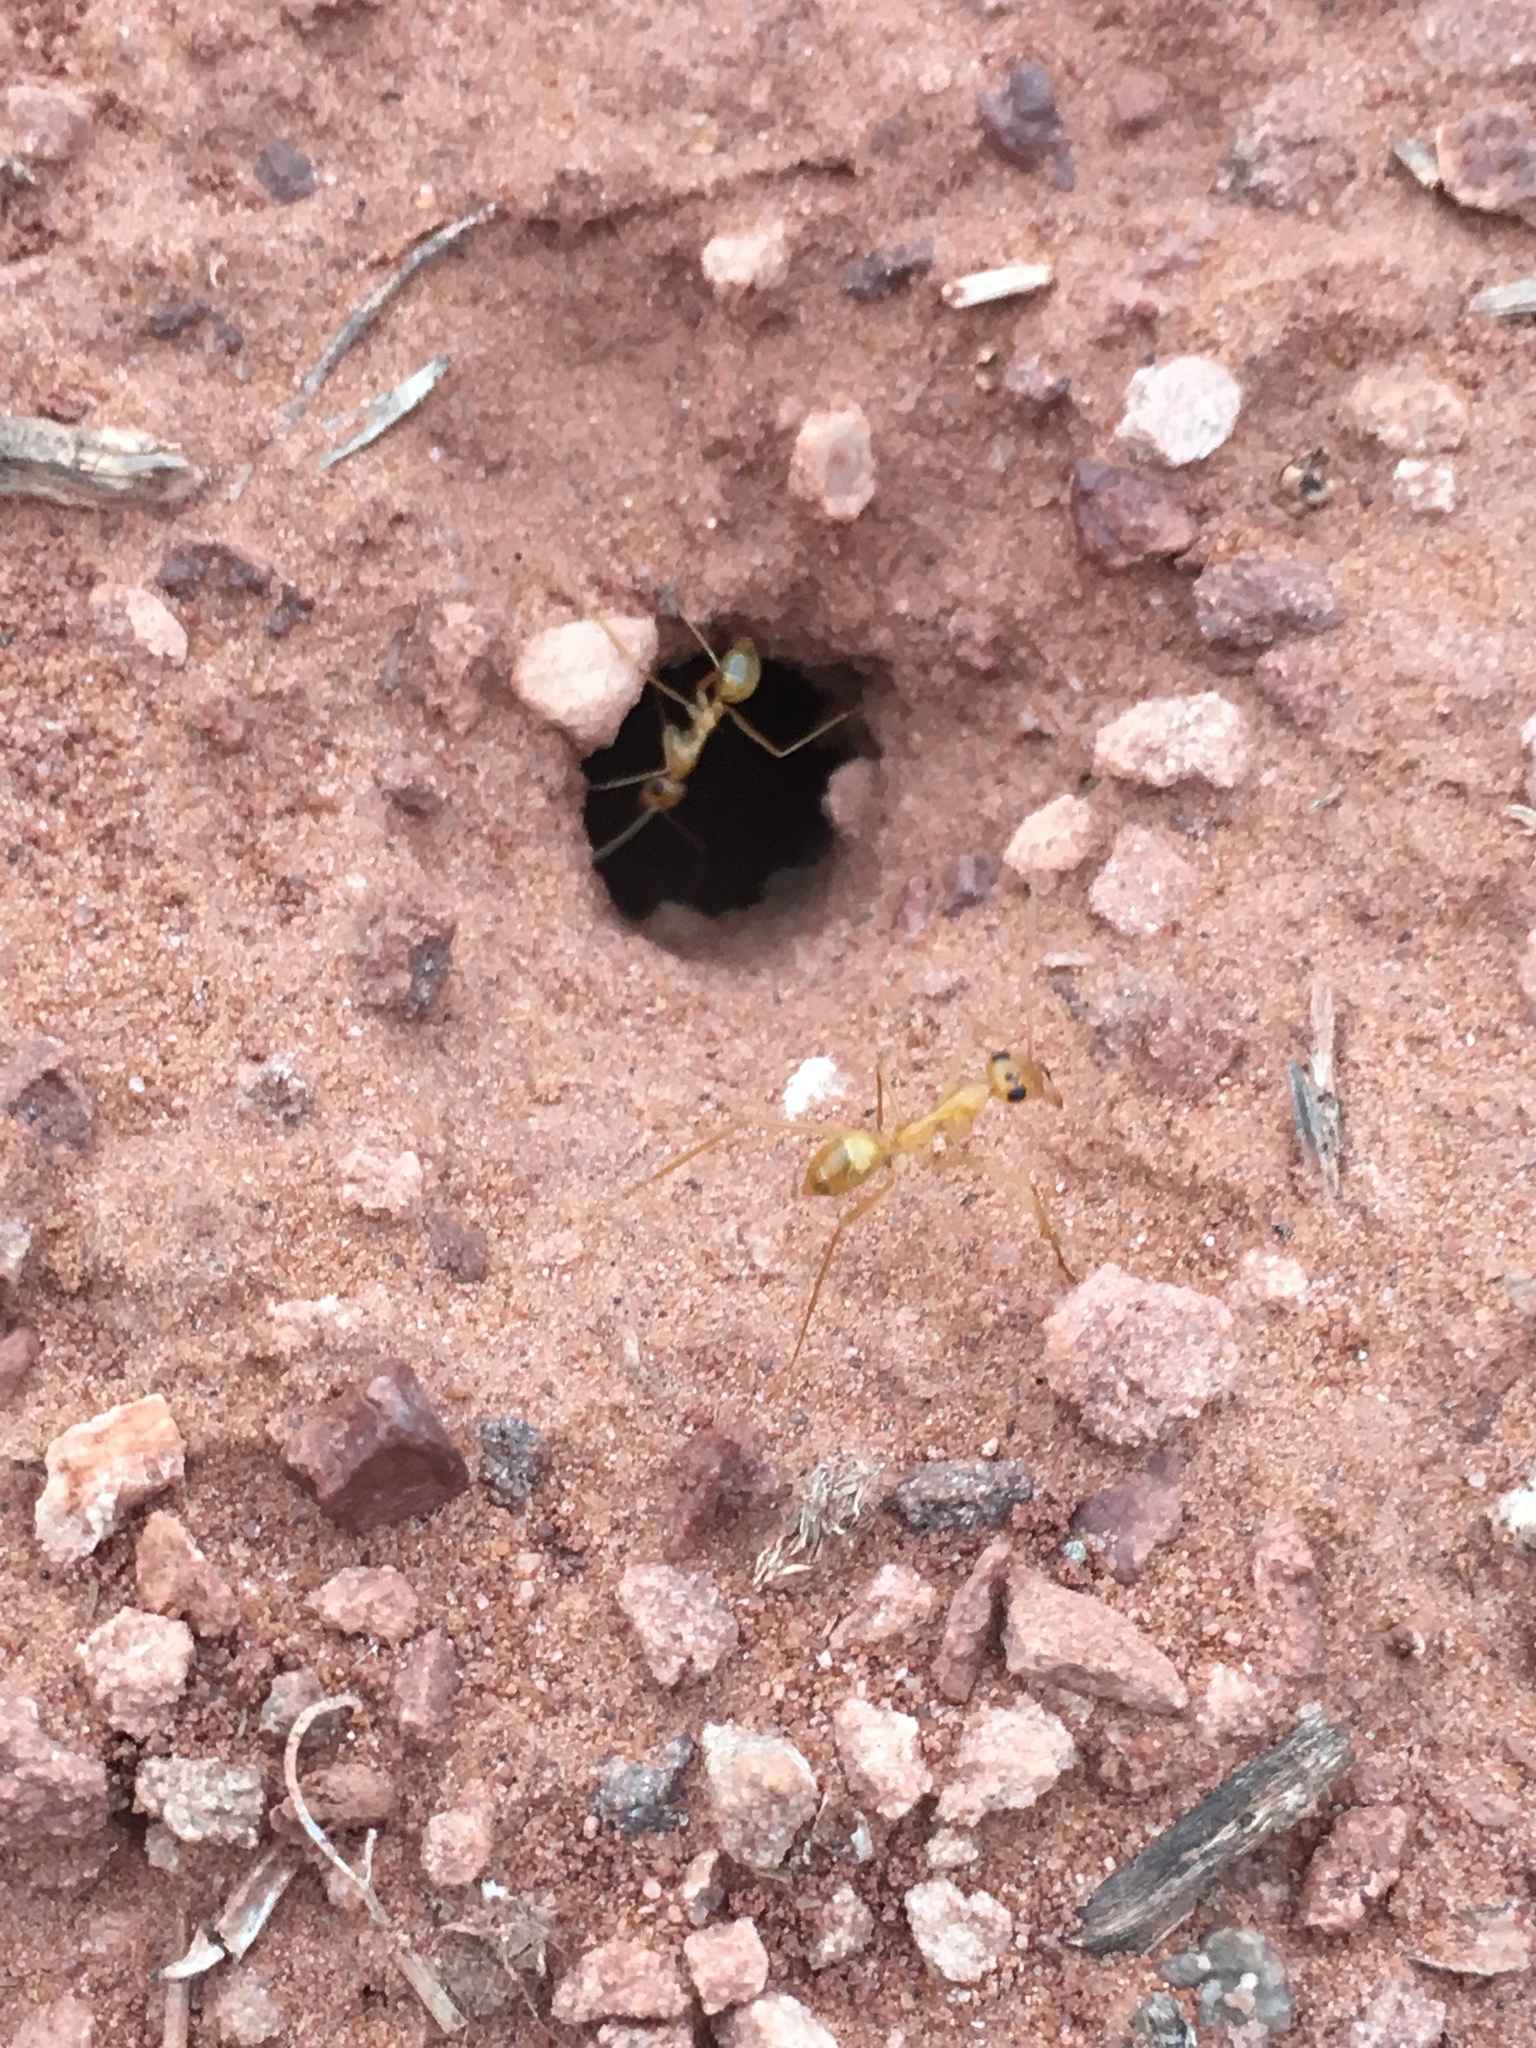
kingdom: Animalia
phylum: Arthropoda
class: Insecta
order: Hymenoptera
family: Formicidae
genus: Myrmecocystus
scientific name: Myrmecocystus mexicanus
